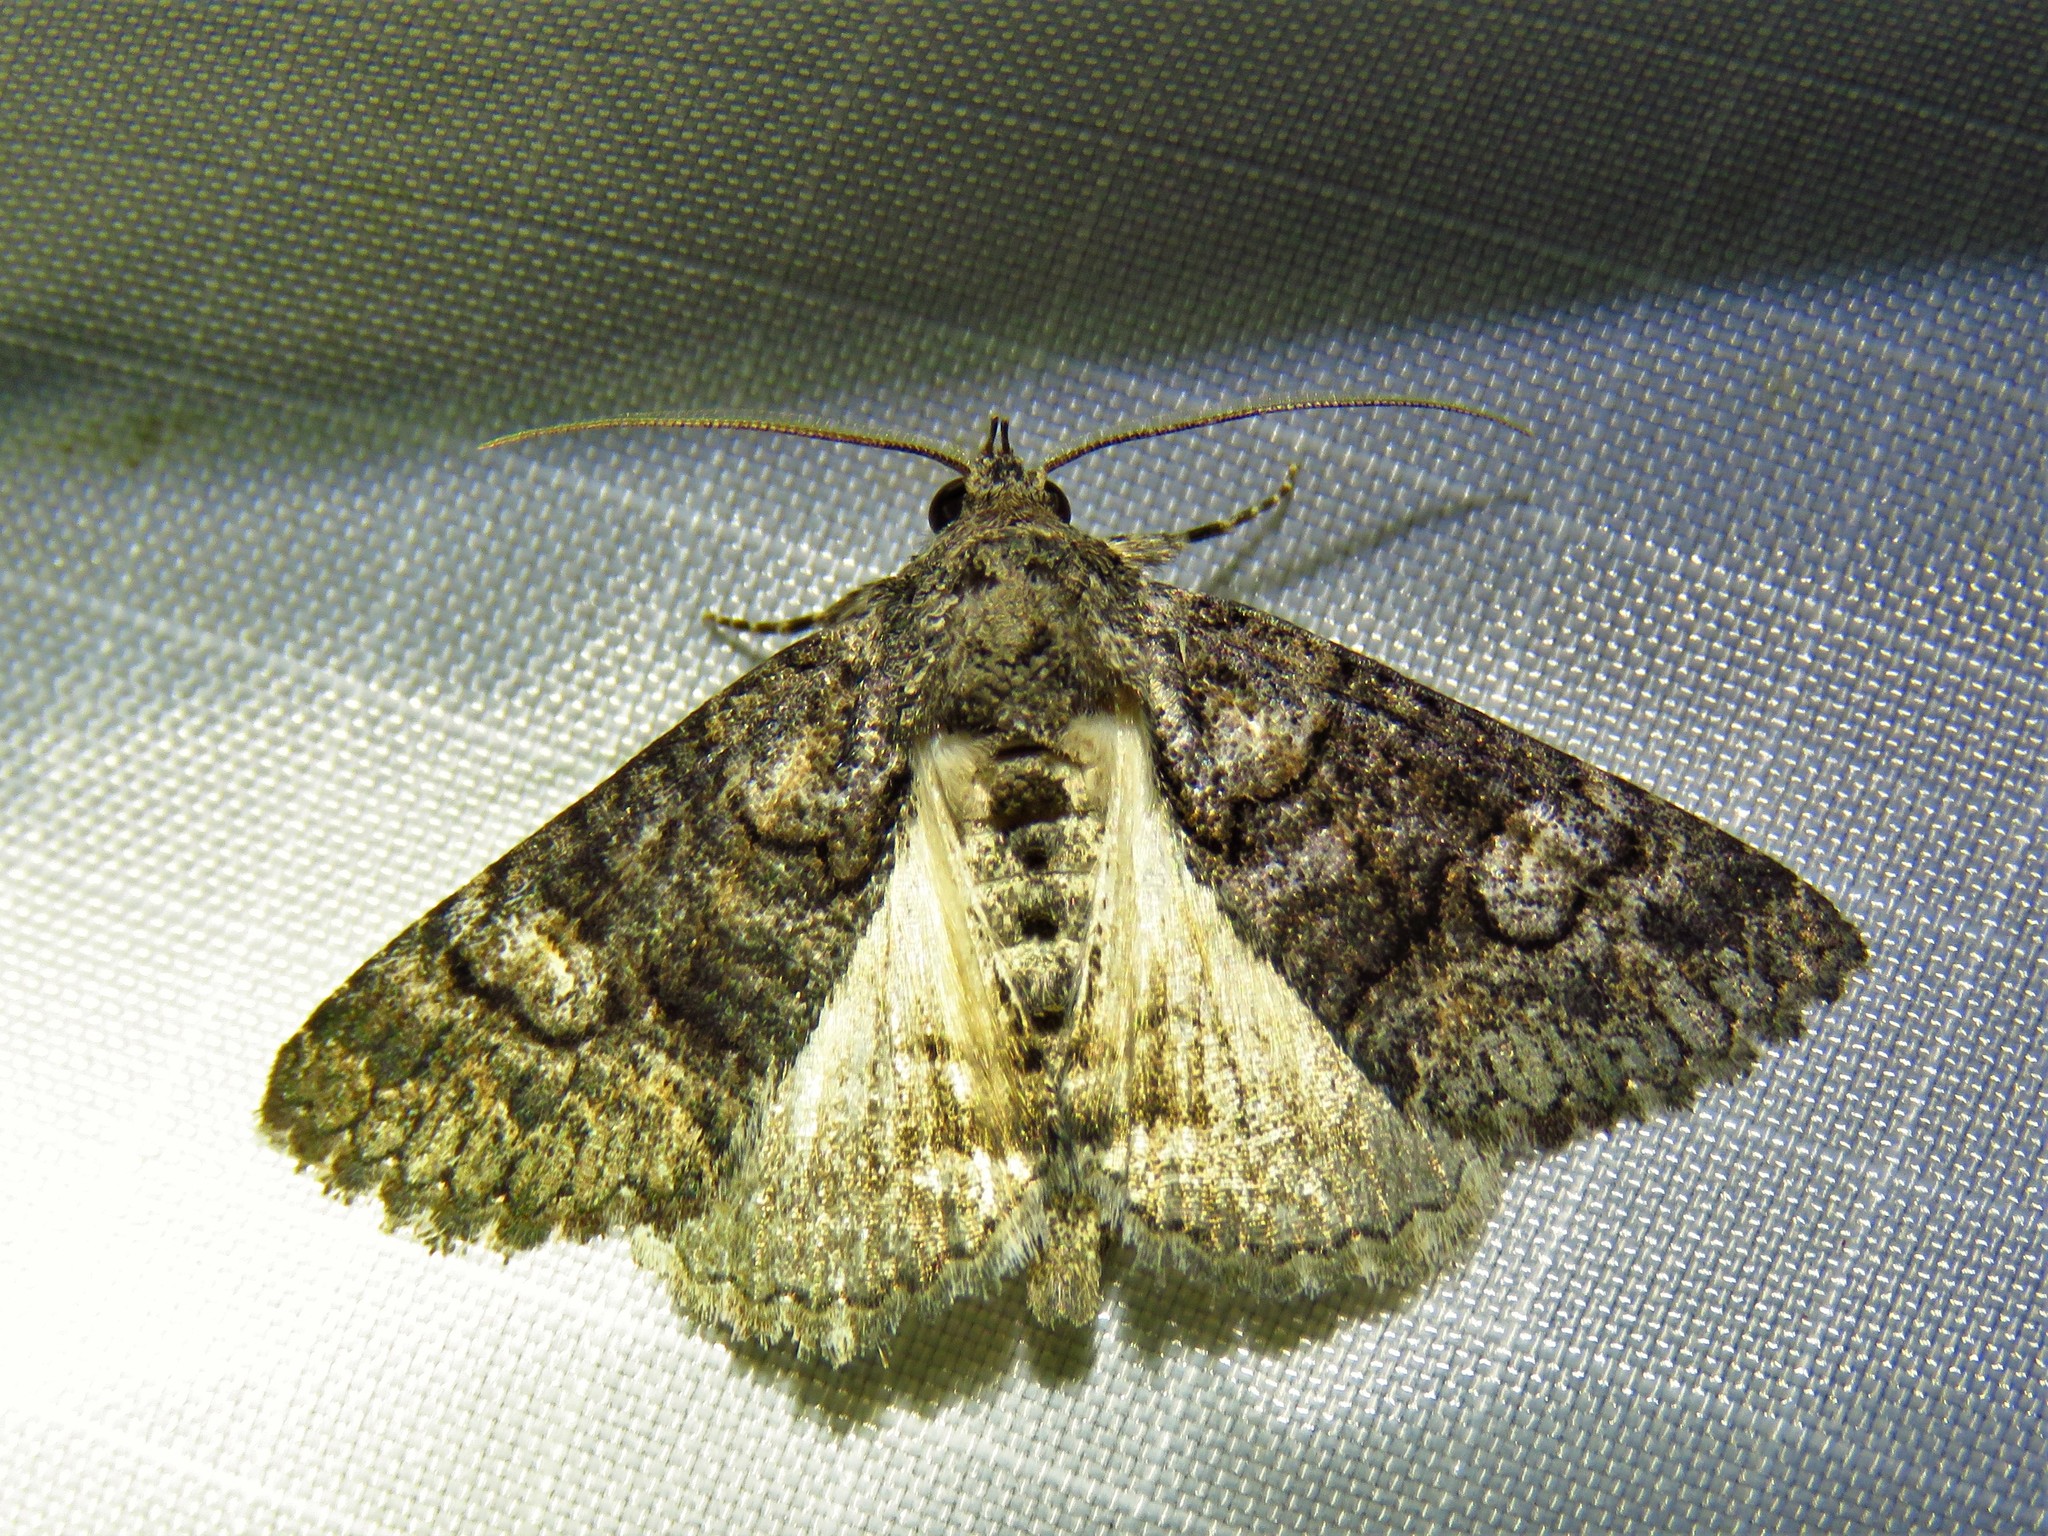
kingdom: Animalia
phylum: Arthropoda
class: Insecta
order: Lepidoptera
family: Erebidae
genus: Elousa
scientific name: Elousa mima
